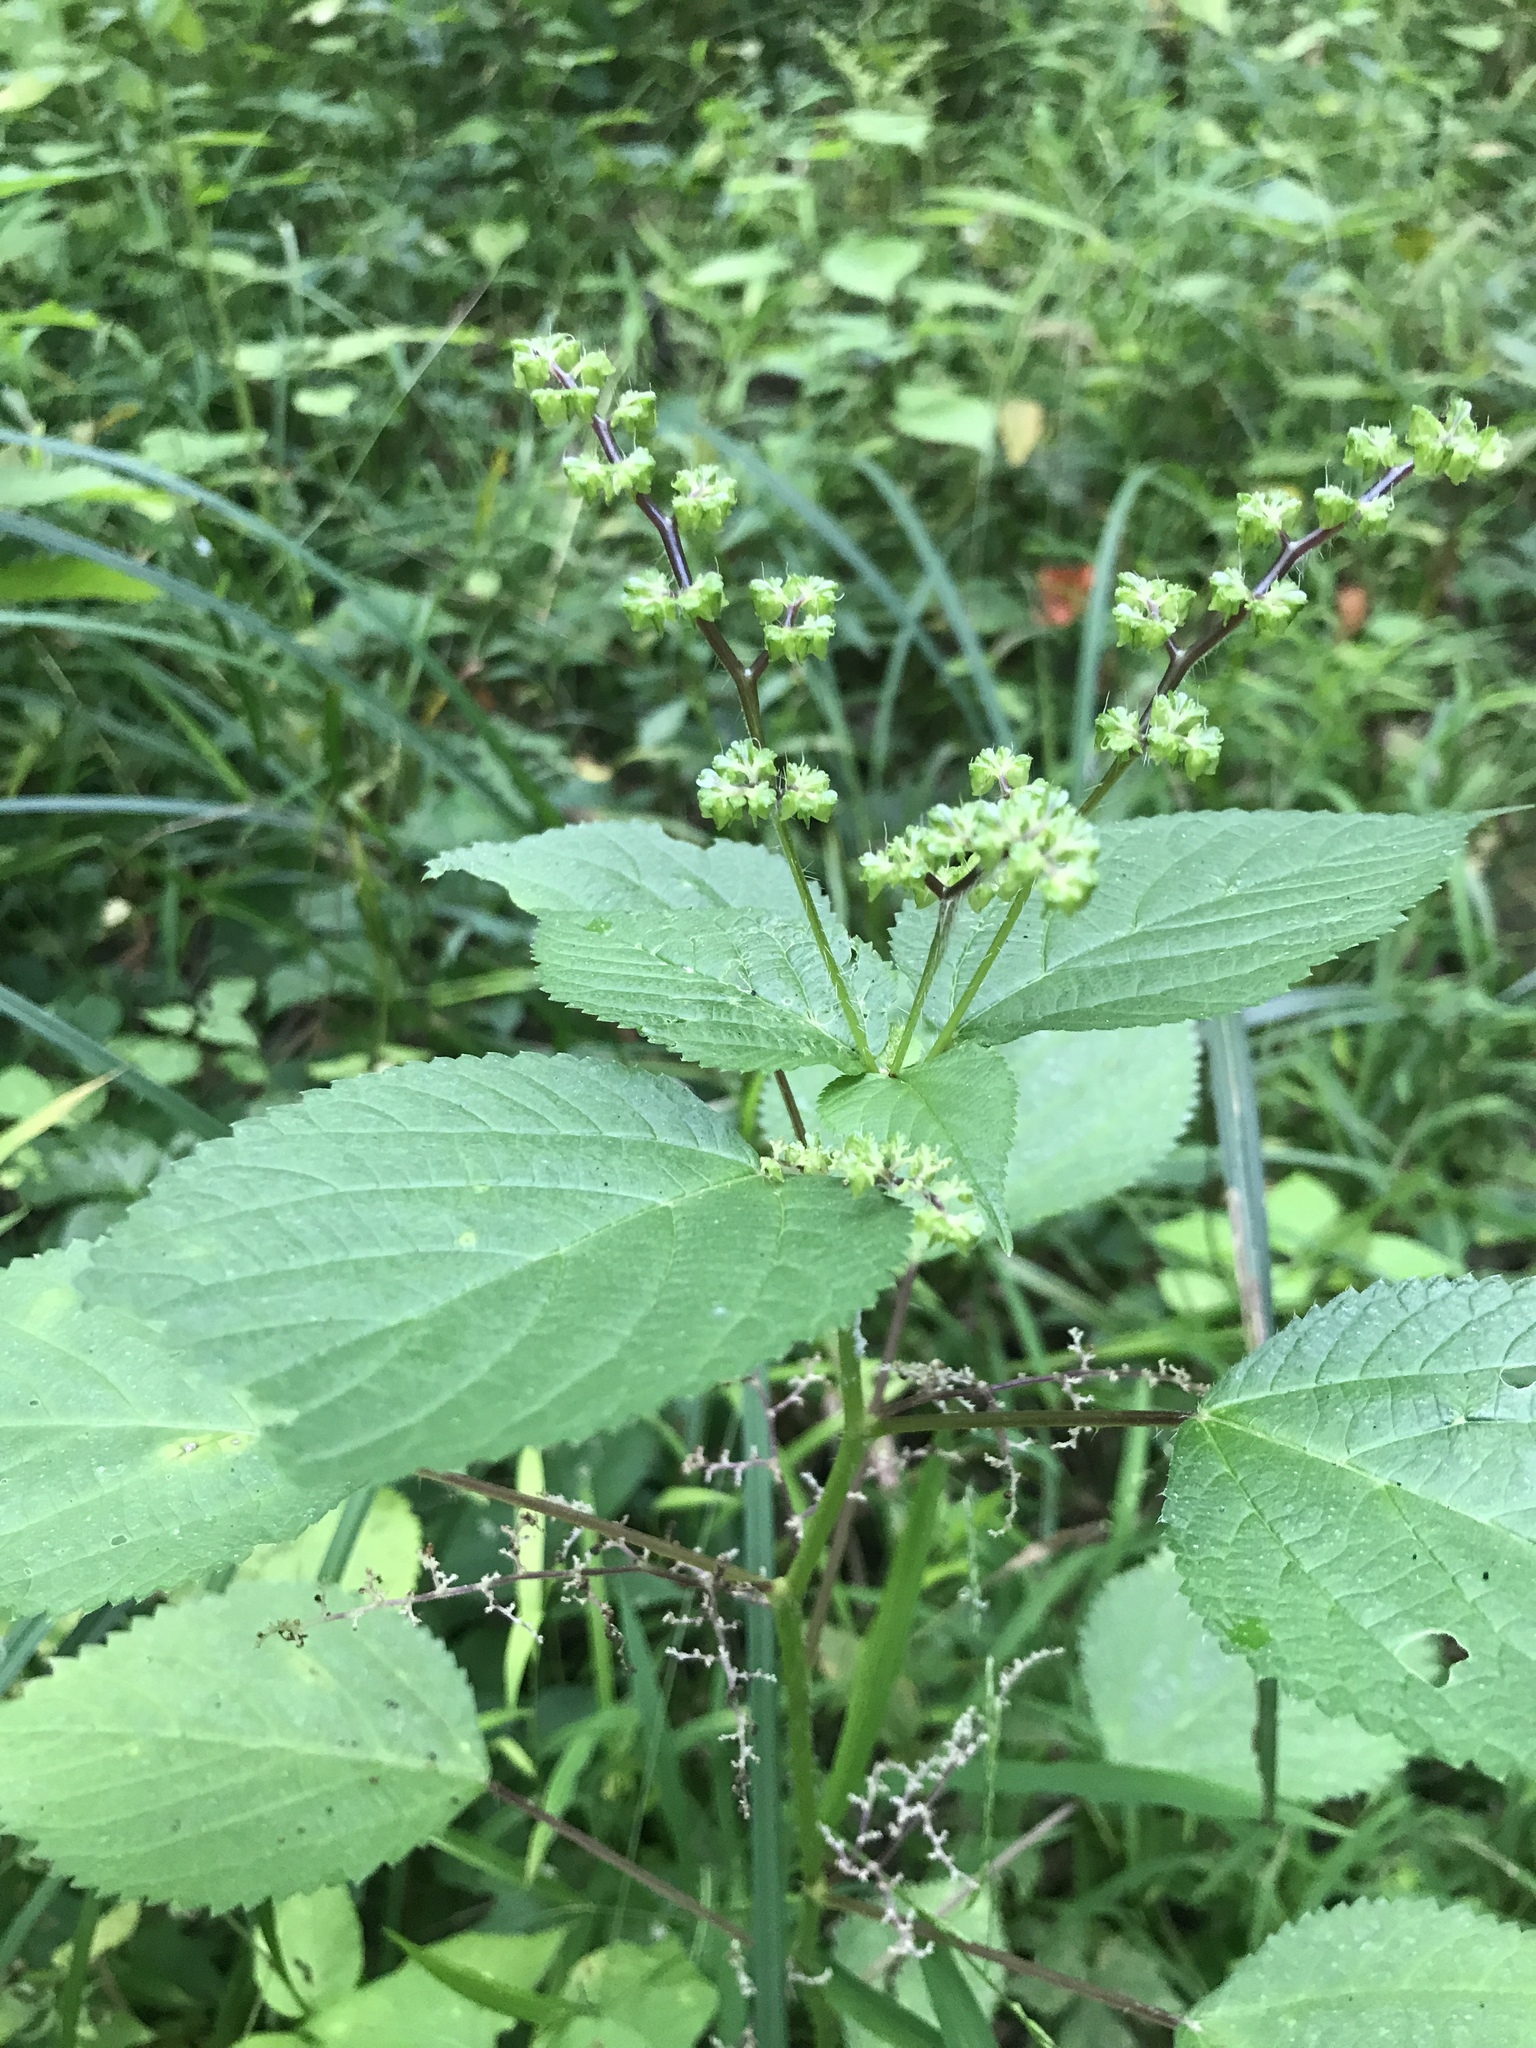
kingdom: Plantae
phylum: Tracheophyta
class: Magnoliopsida
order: Rosales
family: Urticaceae
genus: Laportea
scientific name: Laportea canadensis
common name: Canada nettle
